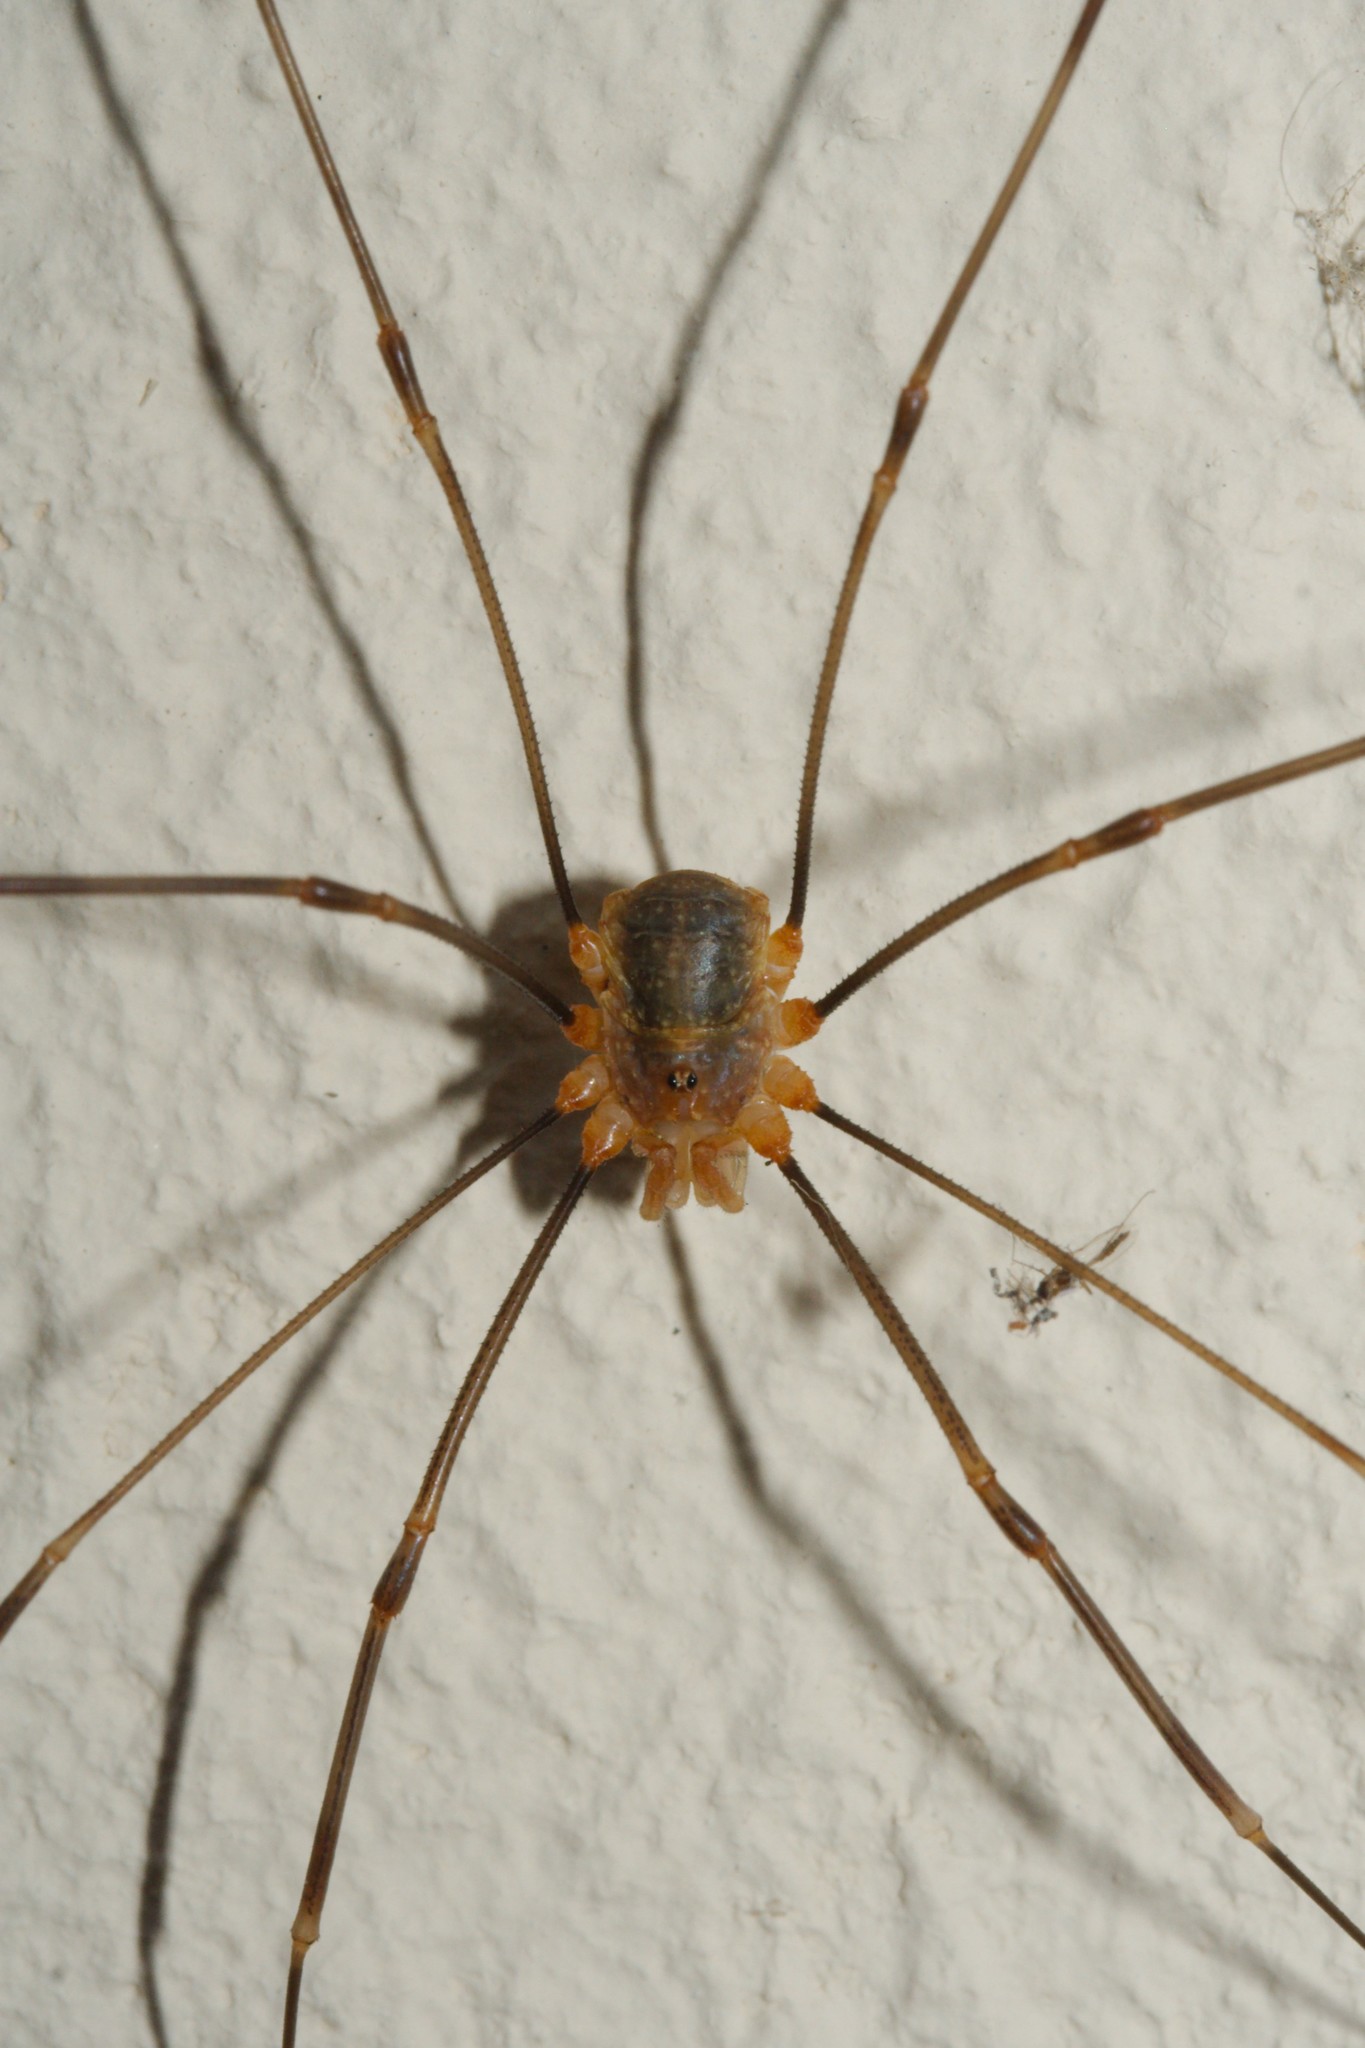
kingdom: Animalia
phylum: Arthropoda
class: Arachnida
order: Opiliones
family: Phalangiidae
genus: Opilio
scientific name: Opilio canestrinii
